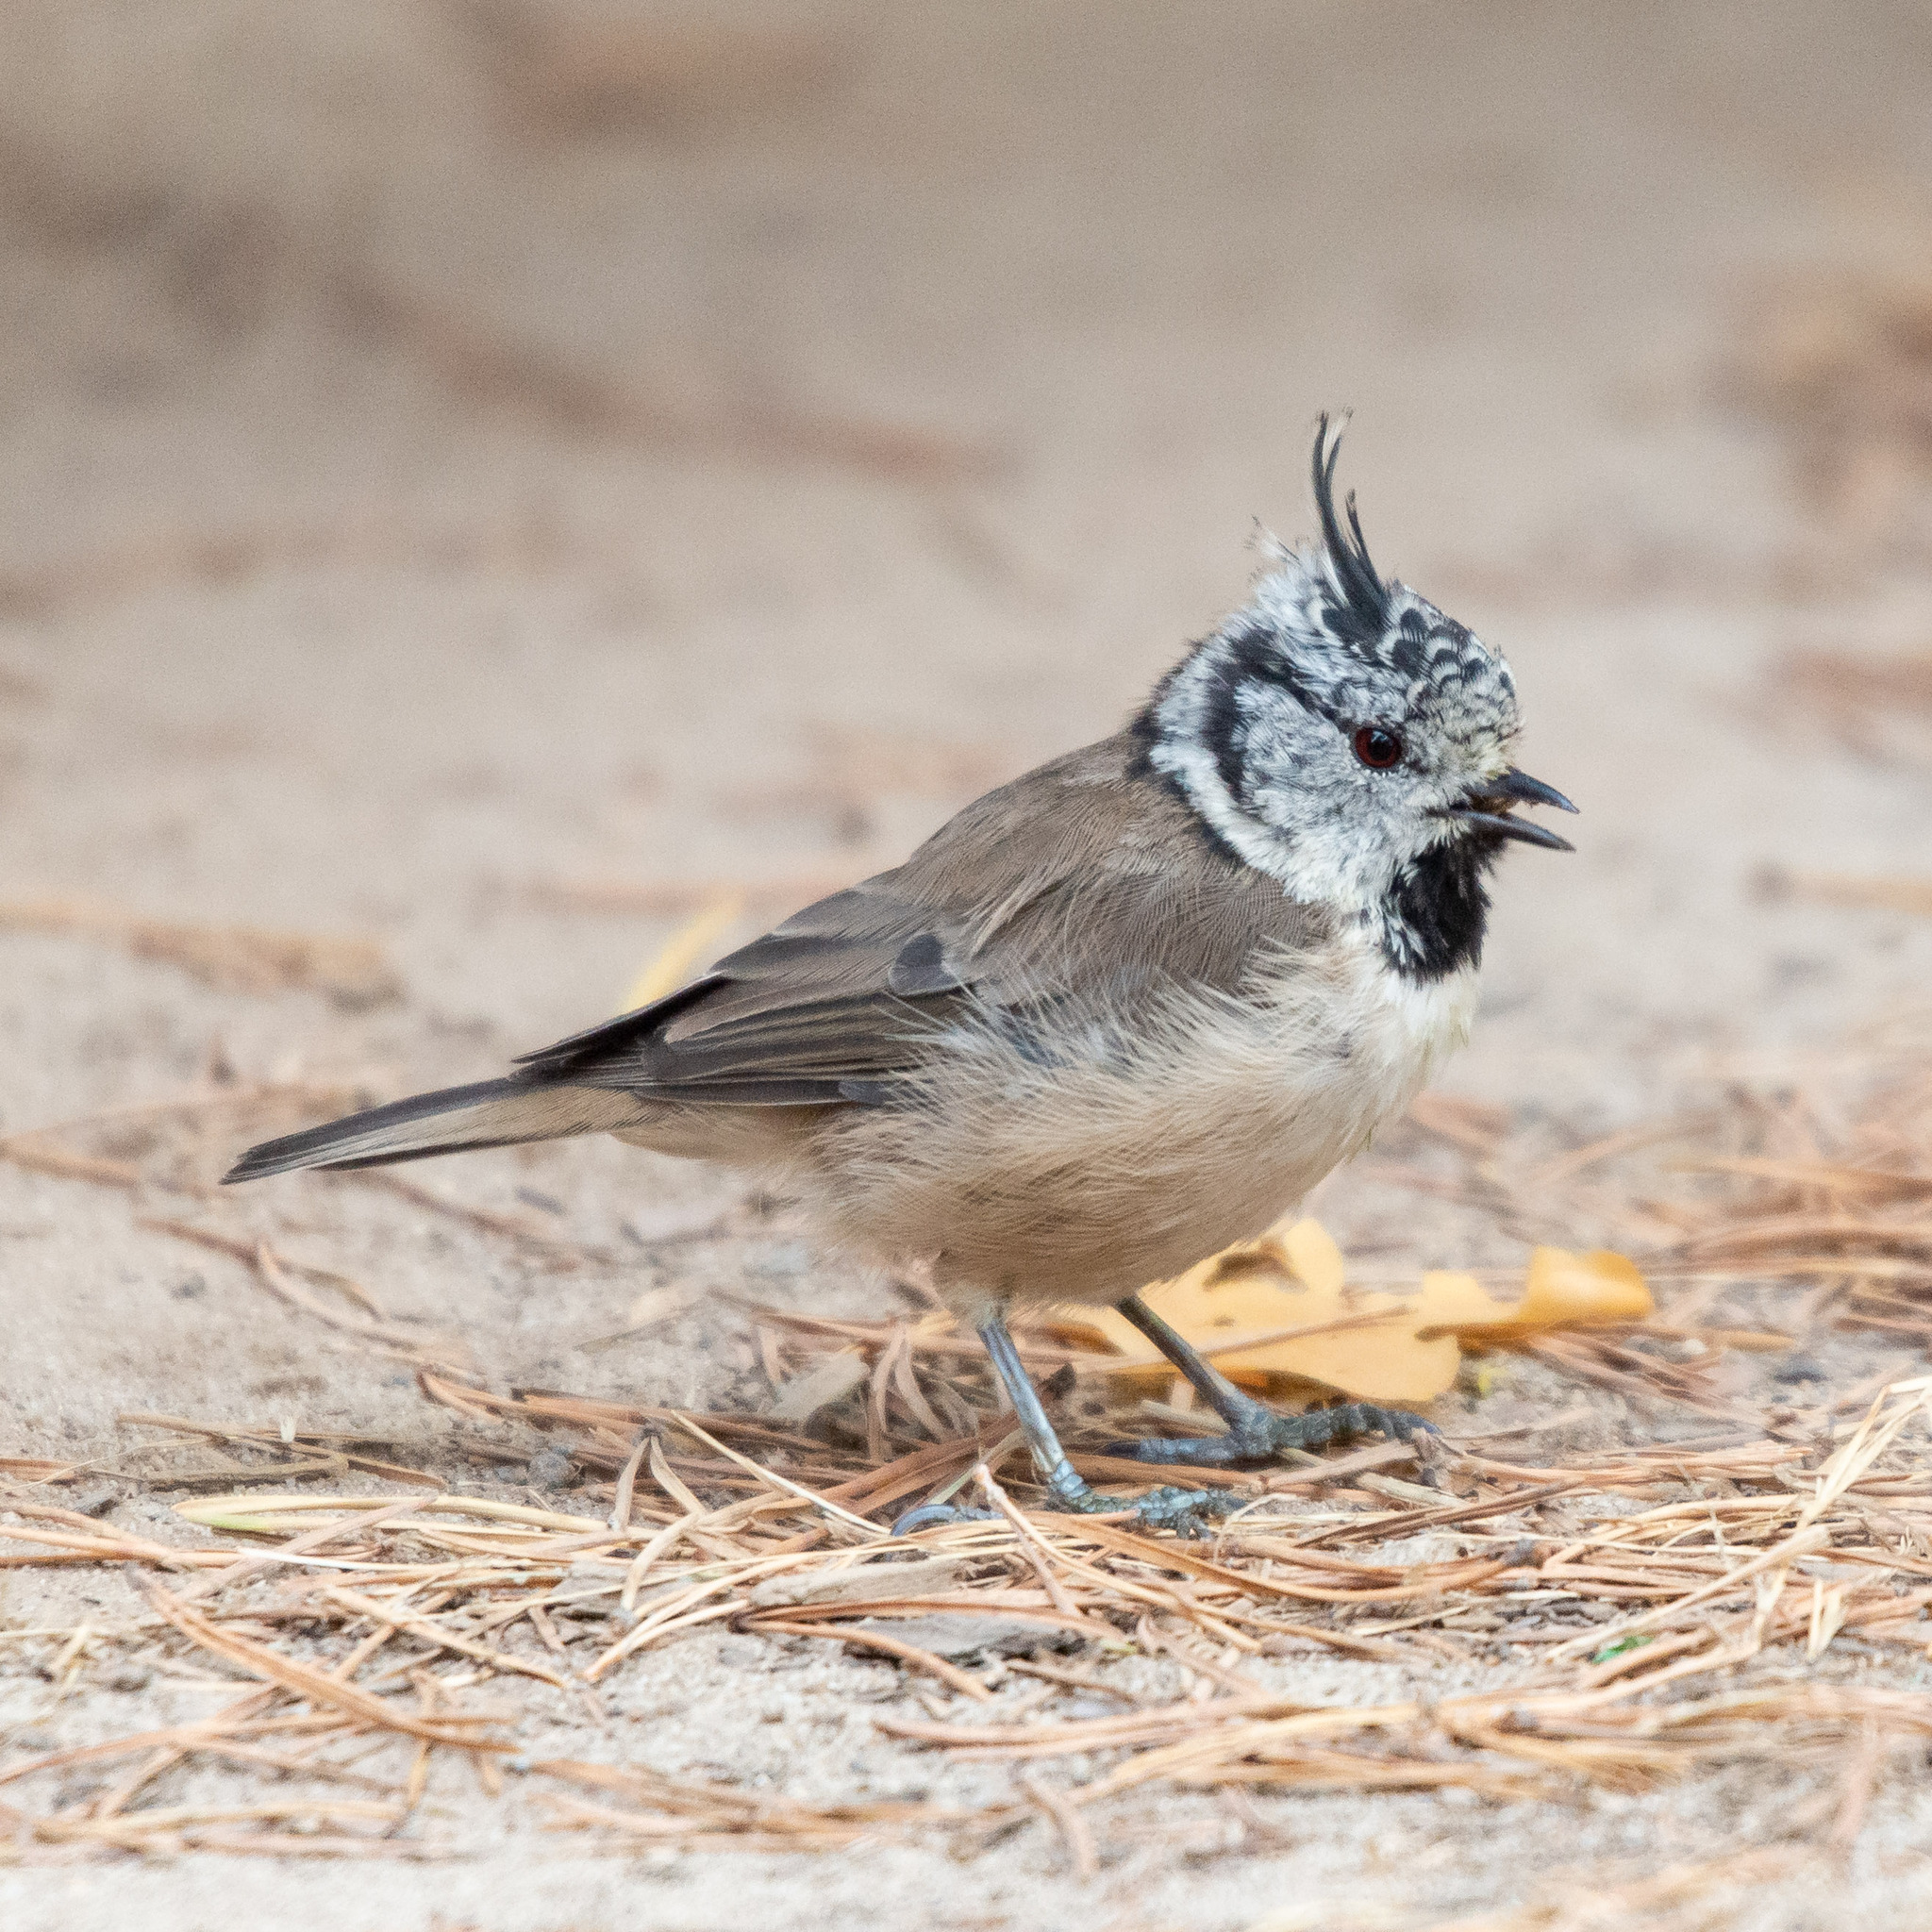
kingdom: Animalia
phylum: Chordata
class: Aves
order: Passeriformes
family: Paridae
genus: Lophophanes
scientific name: Lophophanes cristatus
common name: European crested tit
